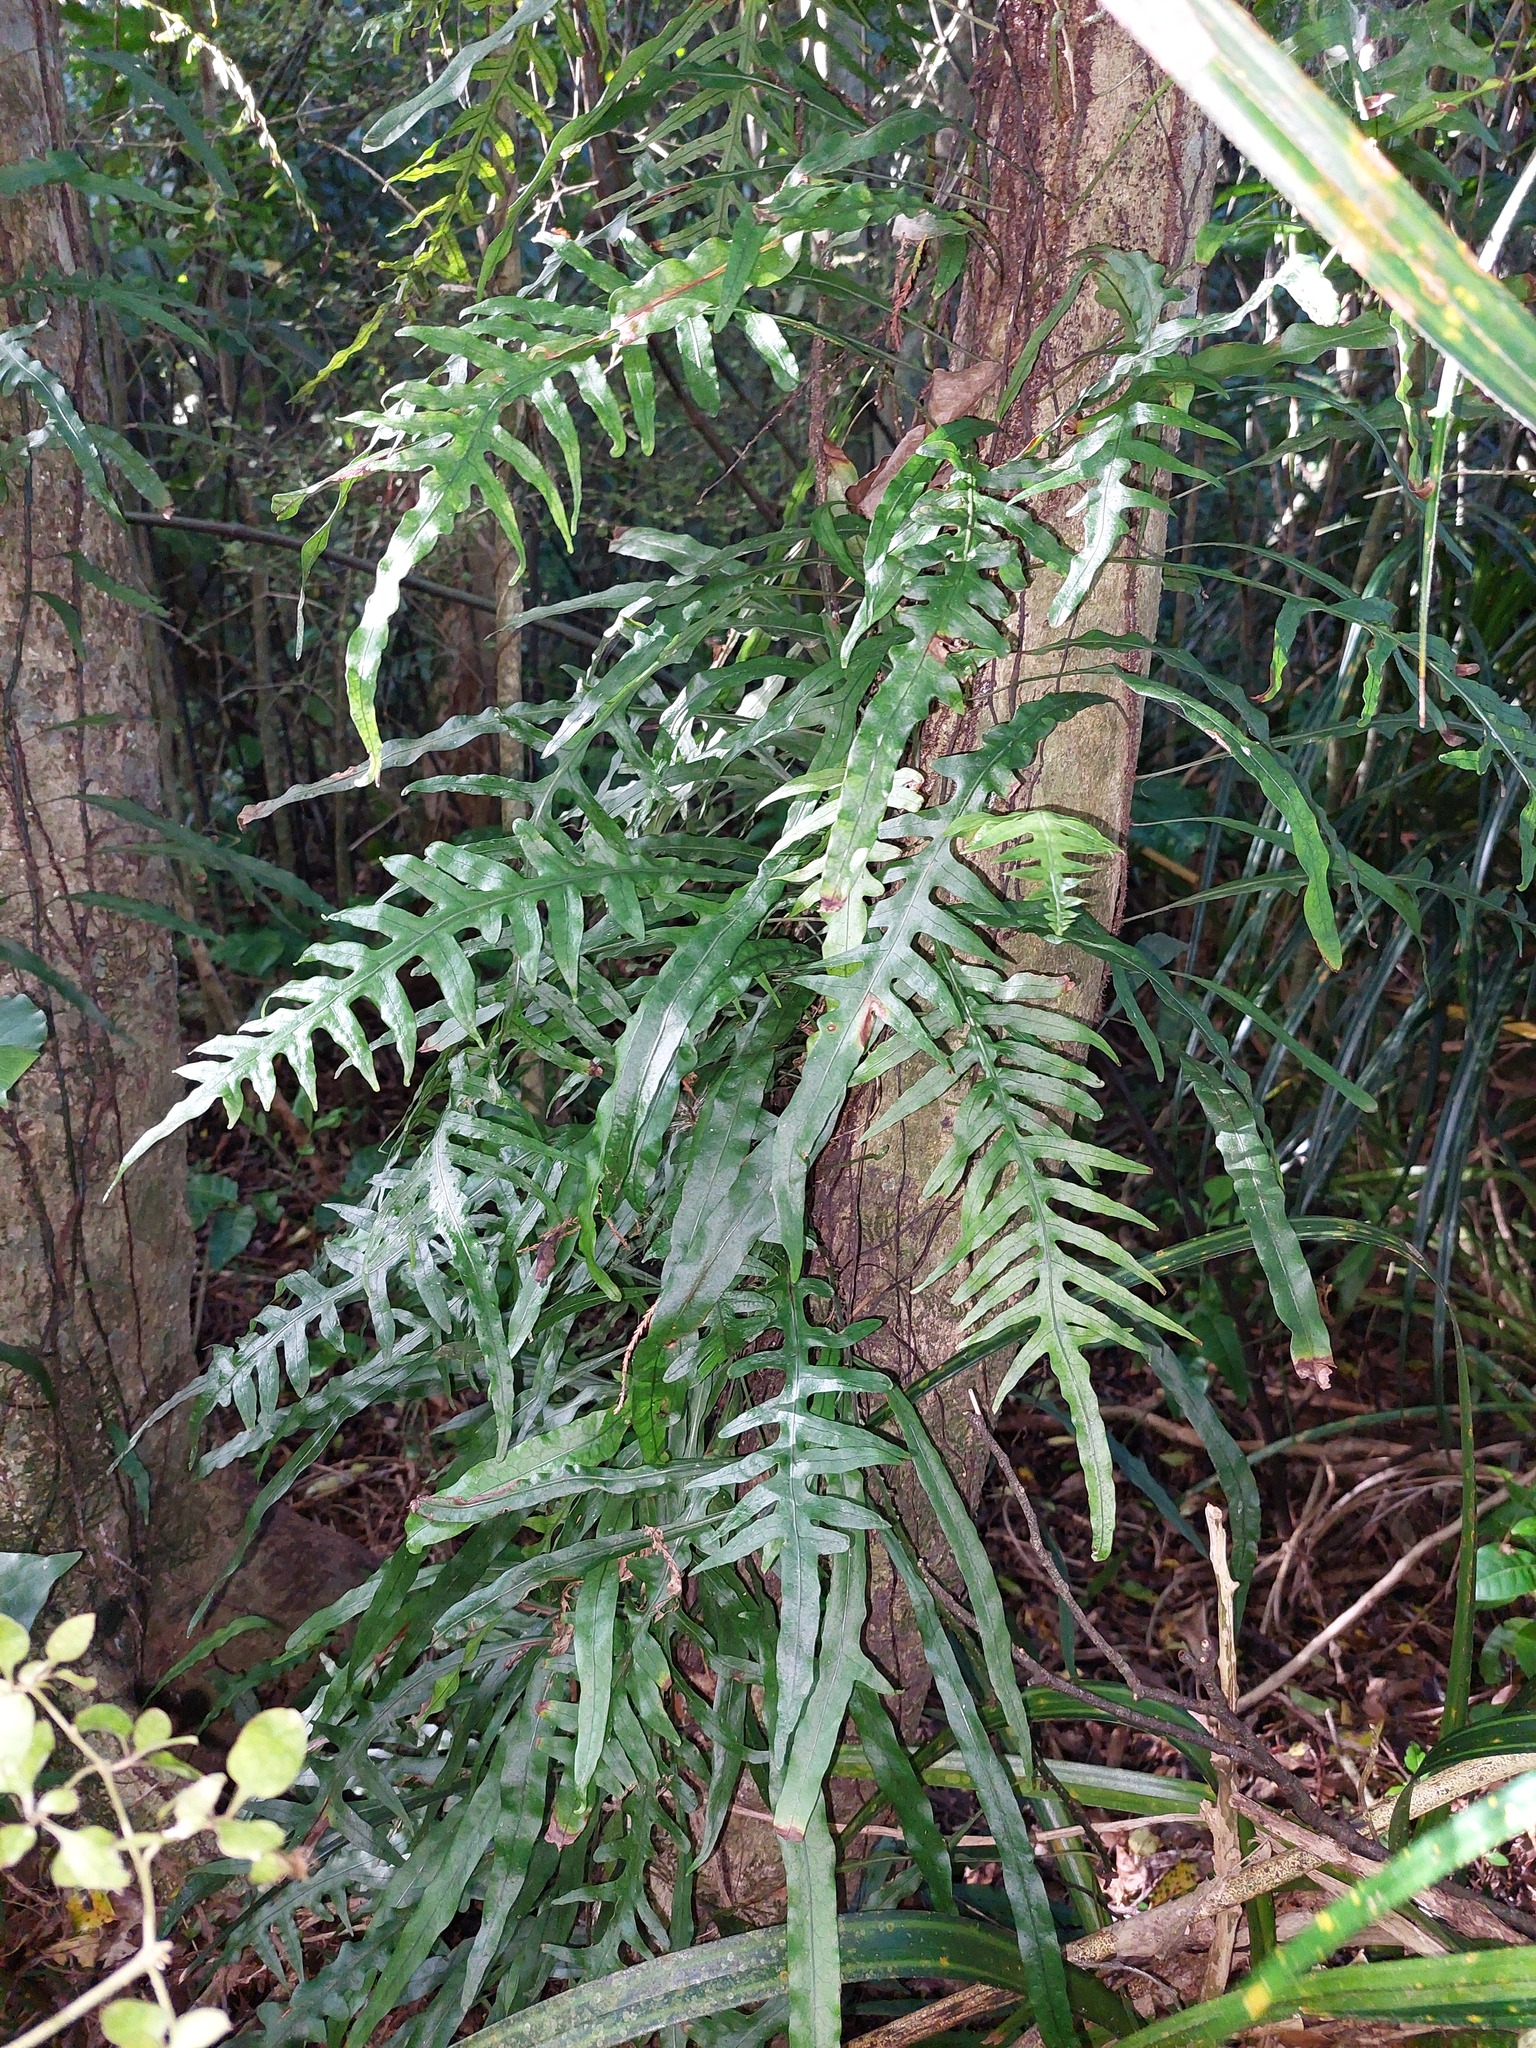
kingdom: Plantae
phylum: Tracheophyta
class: Polypodiopsida
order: Polypodiales
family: Polypodiaceae
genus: Lecanopteris
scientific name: Lecanopteris scandens
